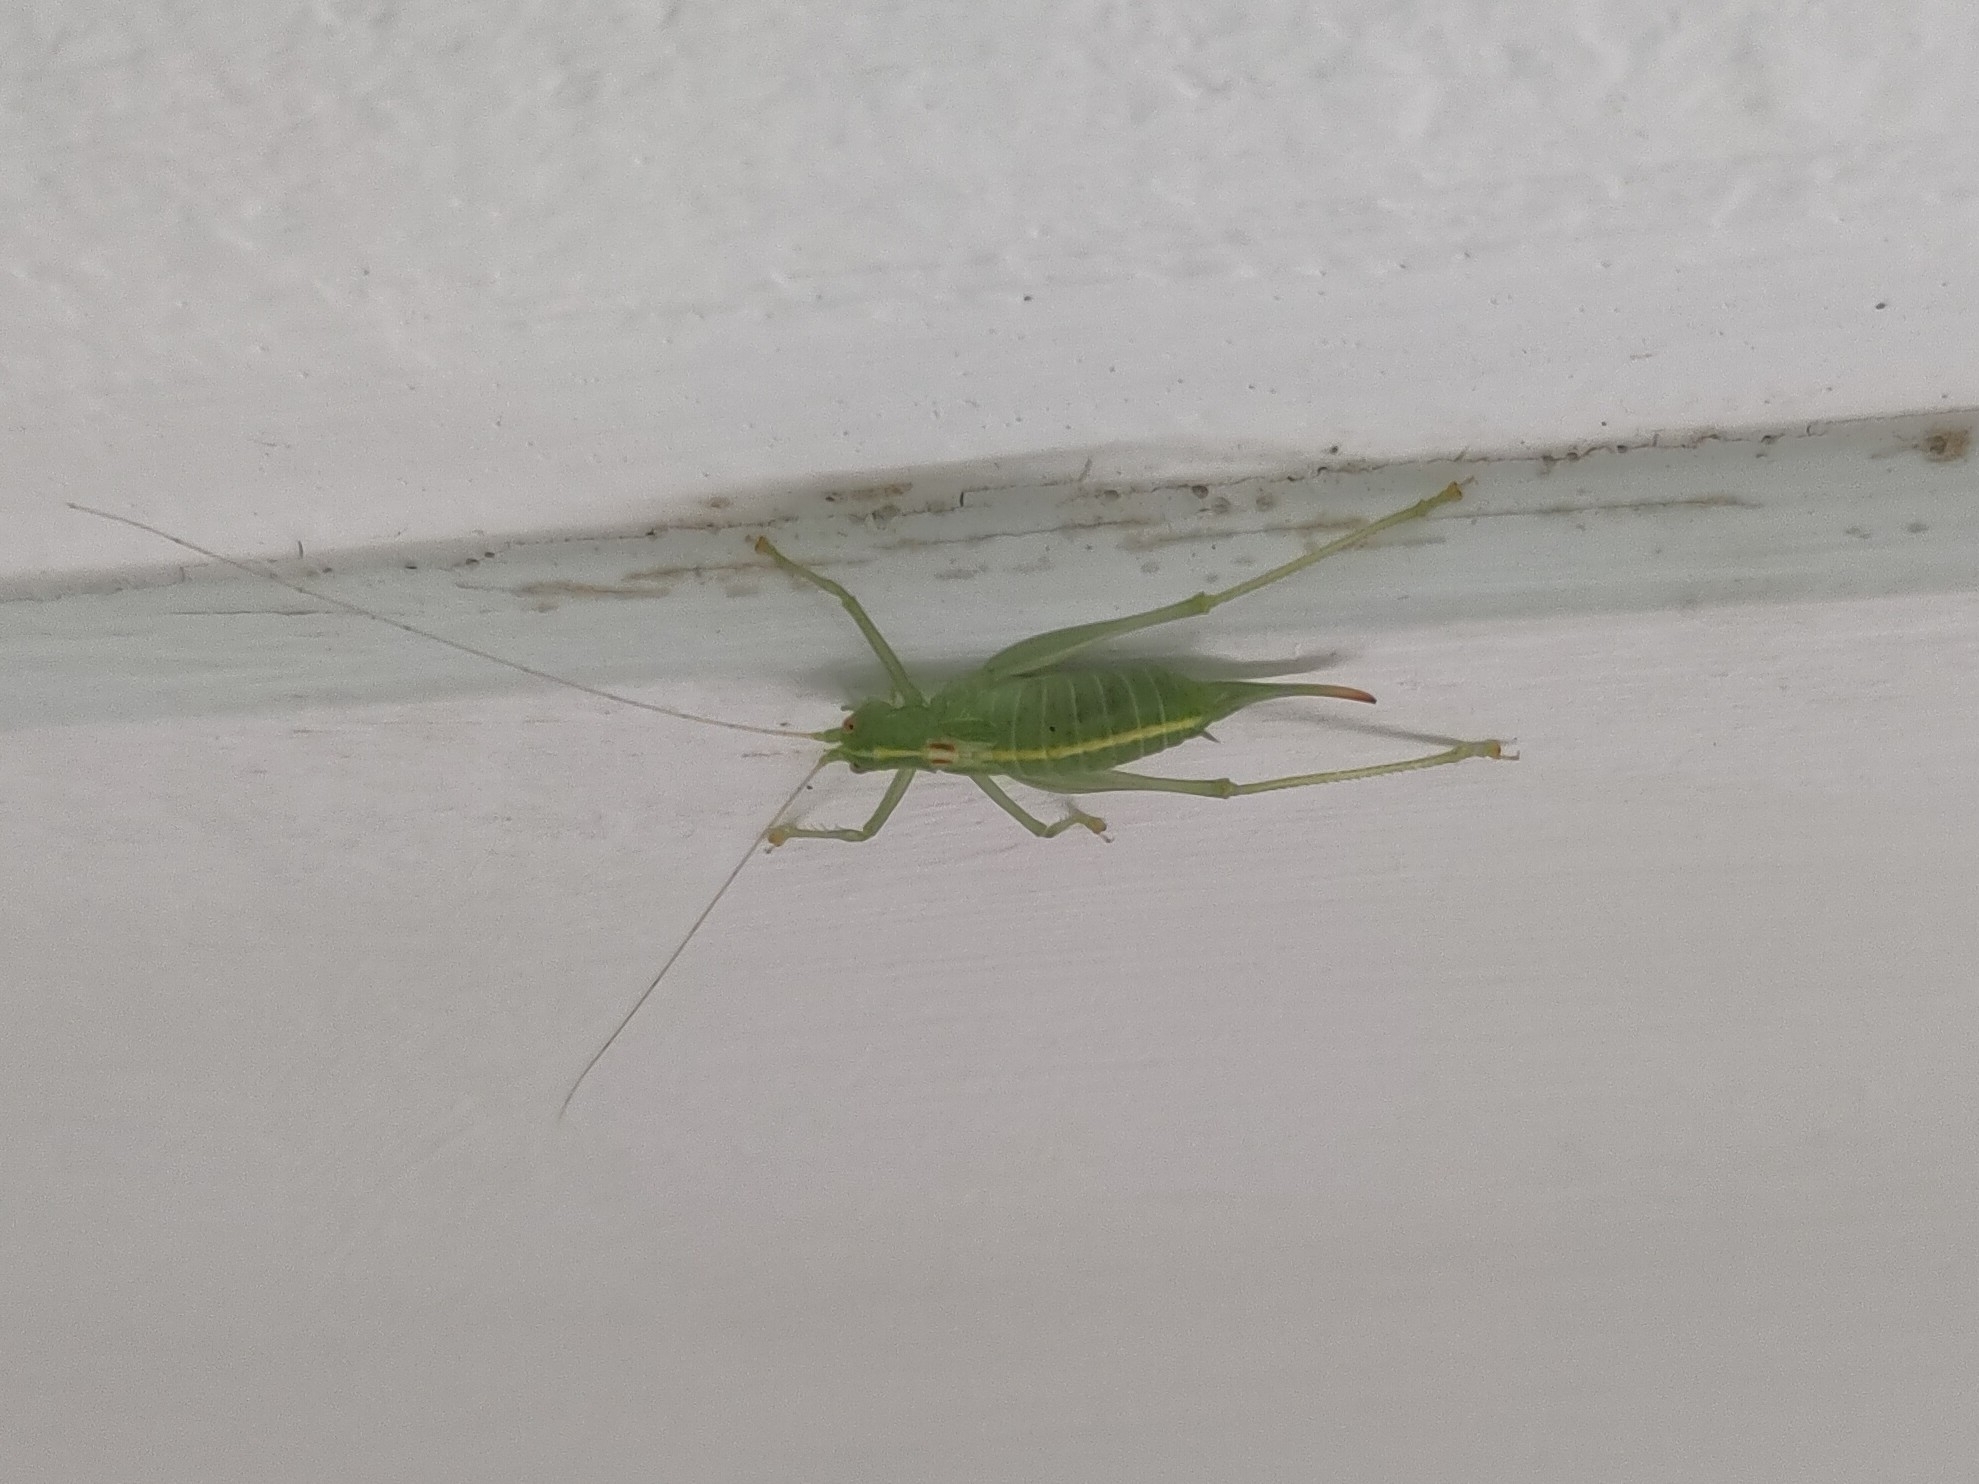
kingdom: Animalia
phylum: Arthropoda
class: Insecta
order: Orthoptera
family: Tettigoniidae
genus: Meconema
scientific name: Meconema meridionale
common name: Southern oak bush-cricket
